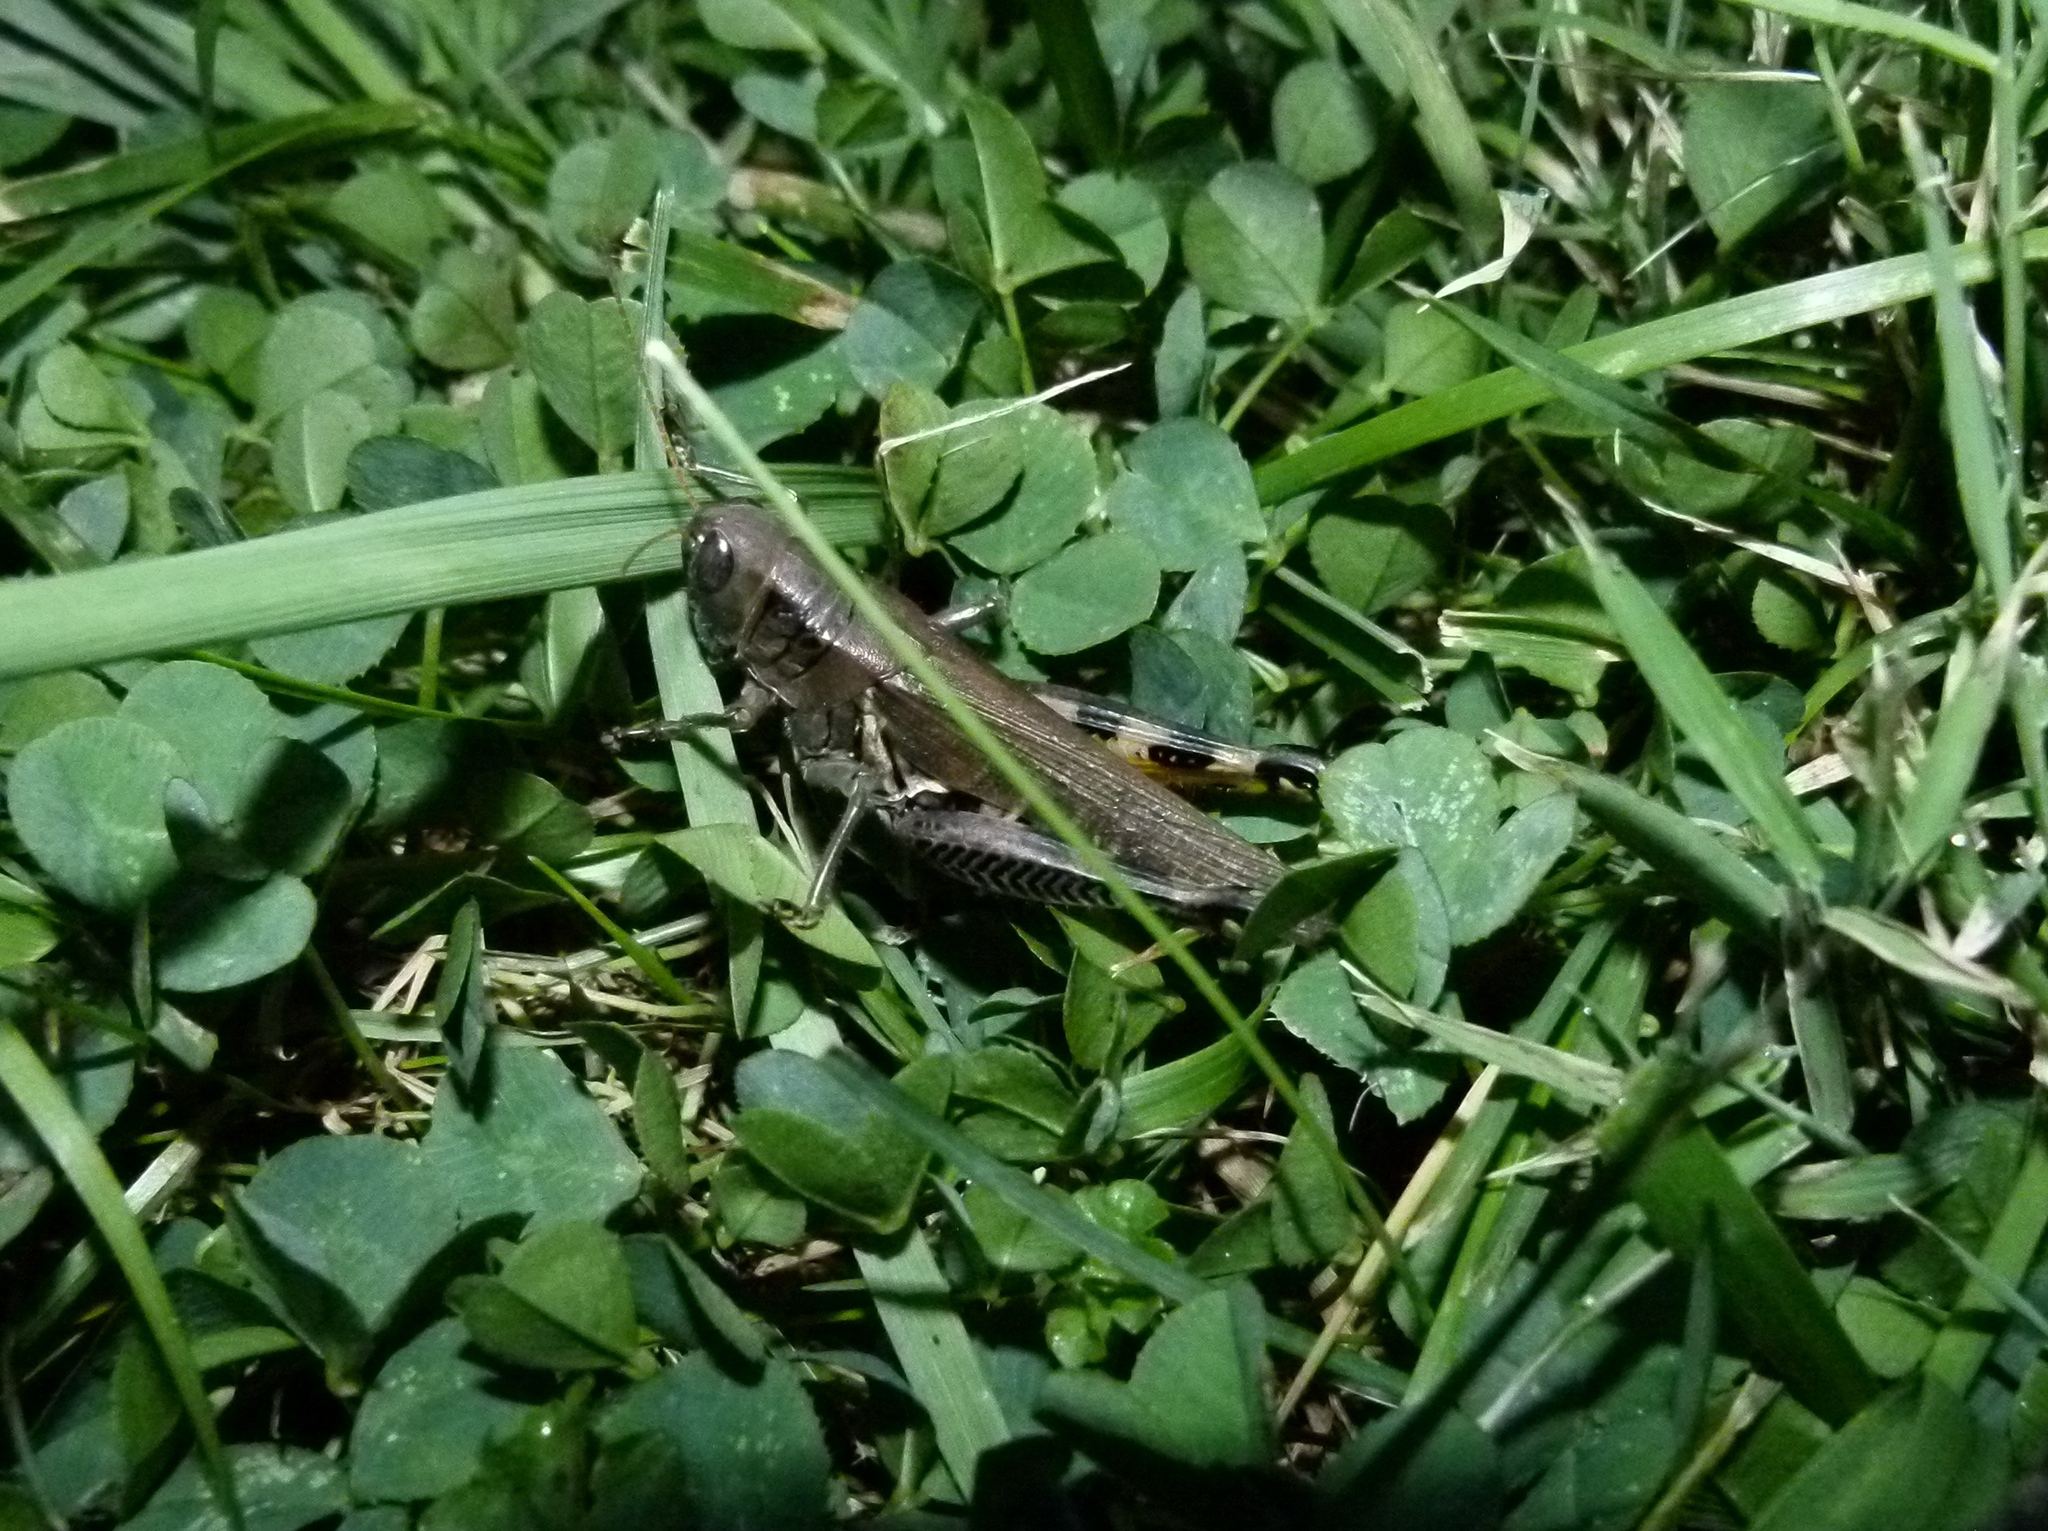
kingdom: Animalia
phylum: Arthropoda
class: Insecta
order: Orthoptera
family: Acrididae
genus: Melanoplus
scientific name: Melanoplus differentialis
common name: Differential grasshopper
